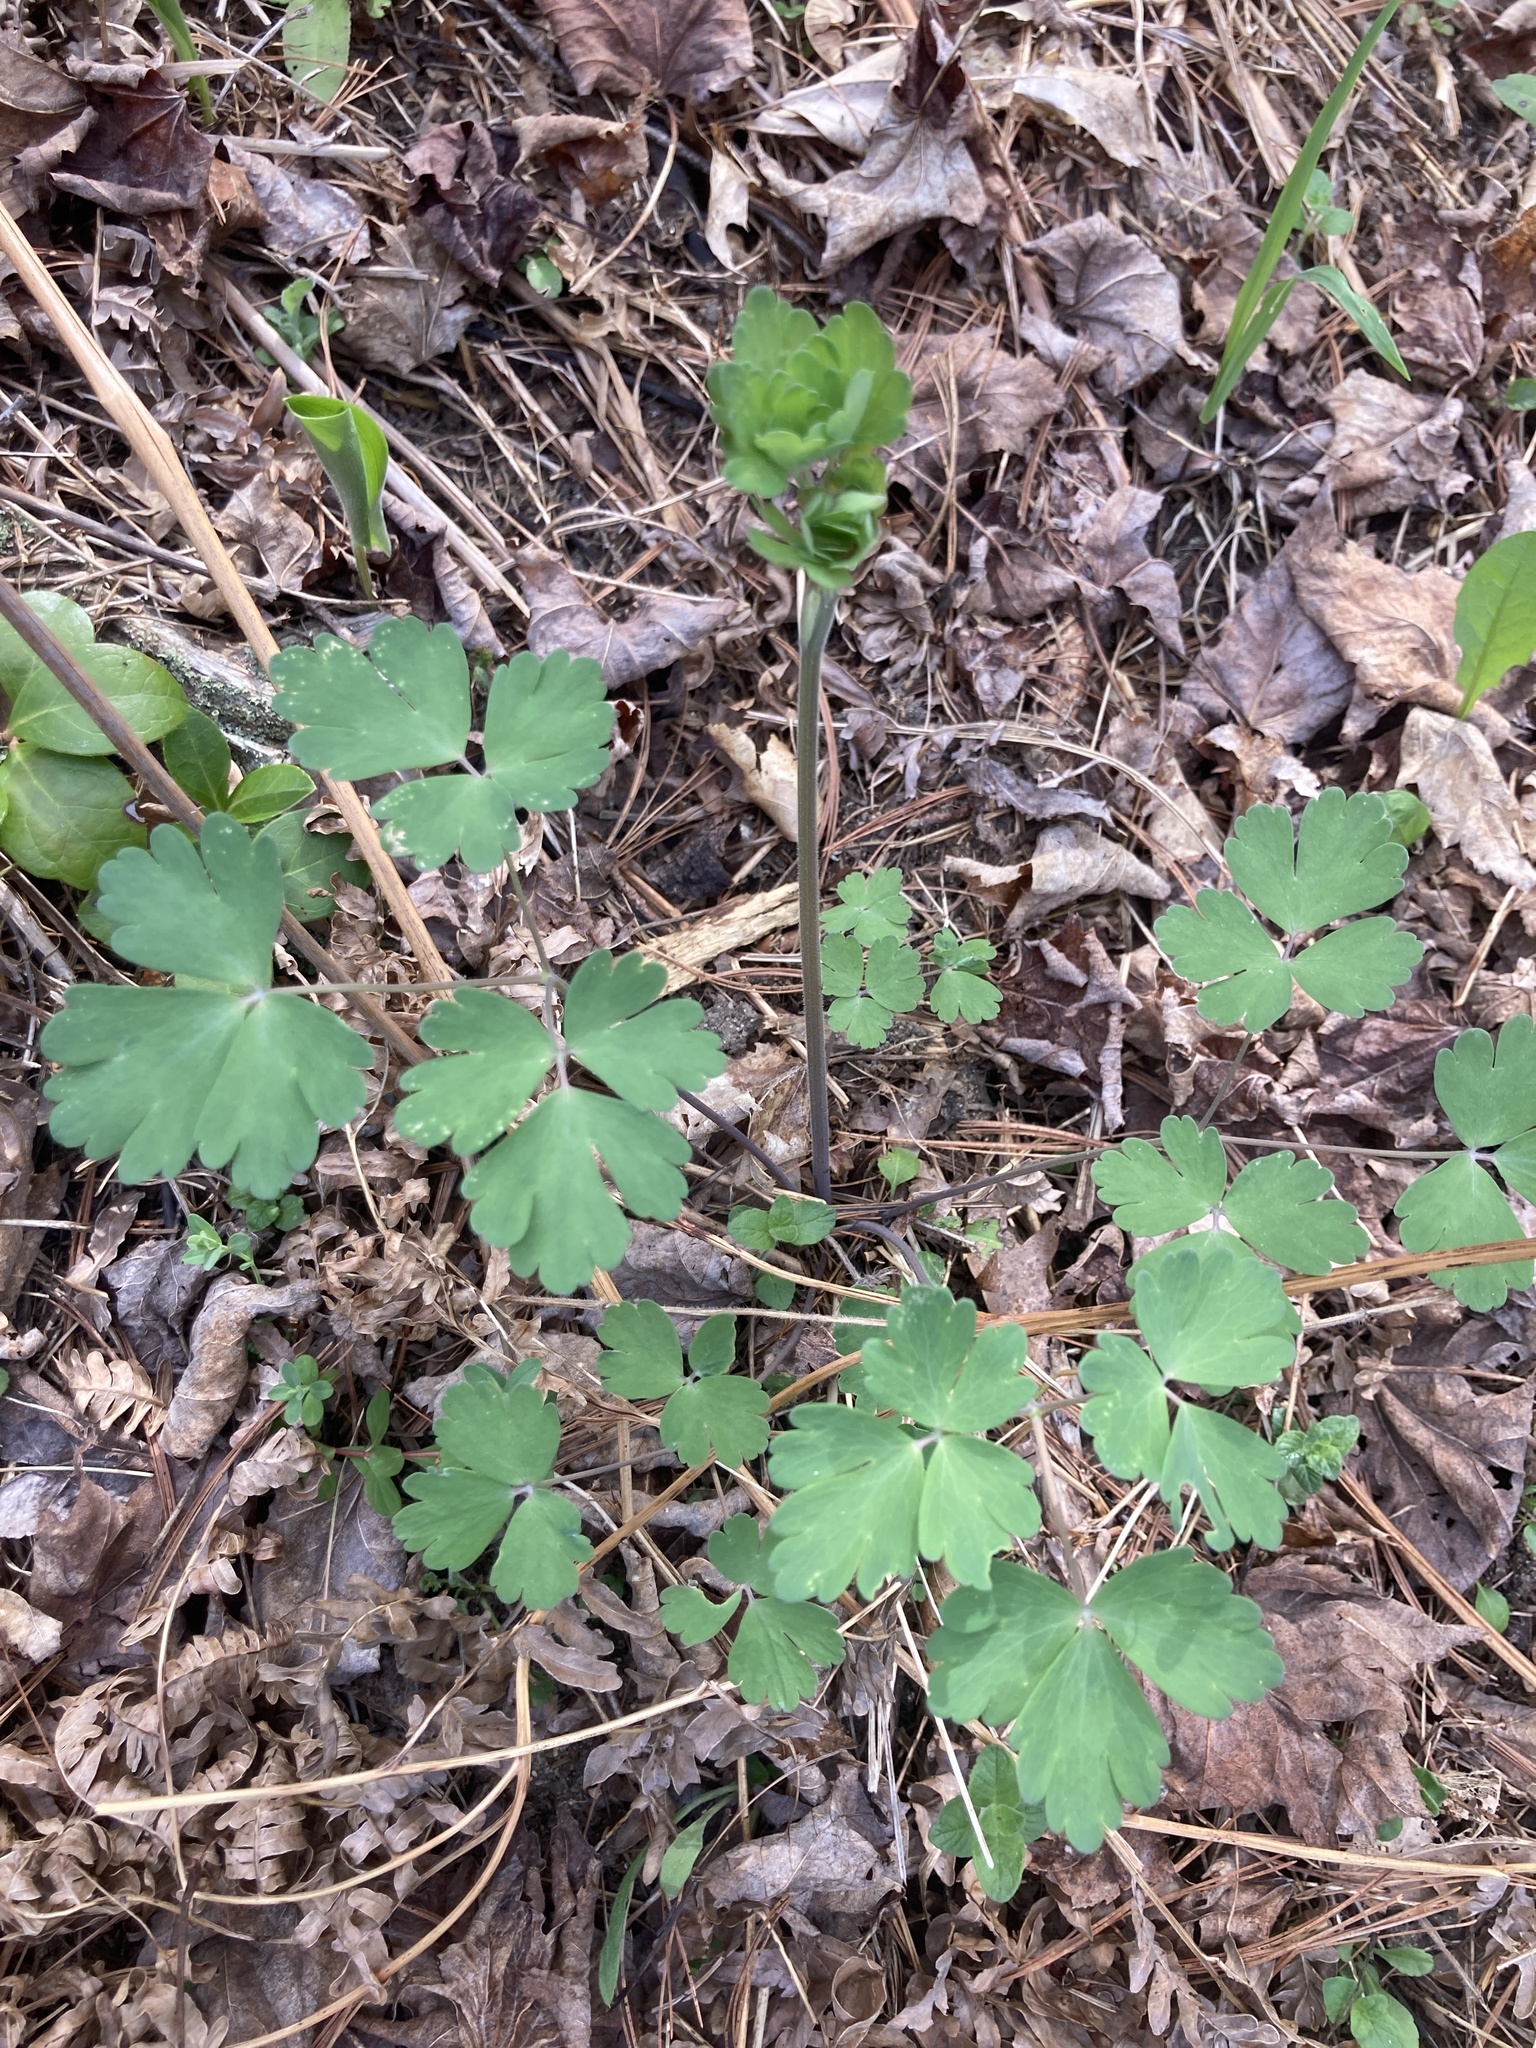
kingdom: Plantae
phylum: Tracheophyta
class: Magnoliopsida
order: Ranunculales
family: Ranunculaceae
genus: Aquilegia
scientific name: Aquilegia canadensis
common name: American columbine
